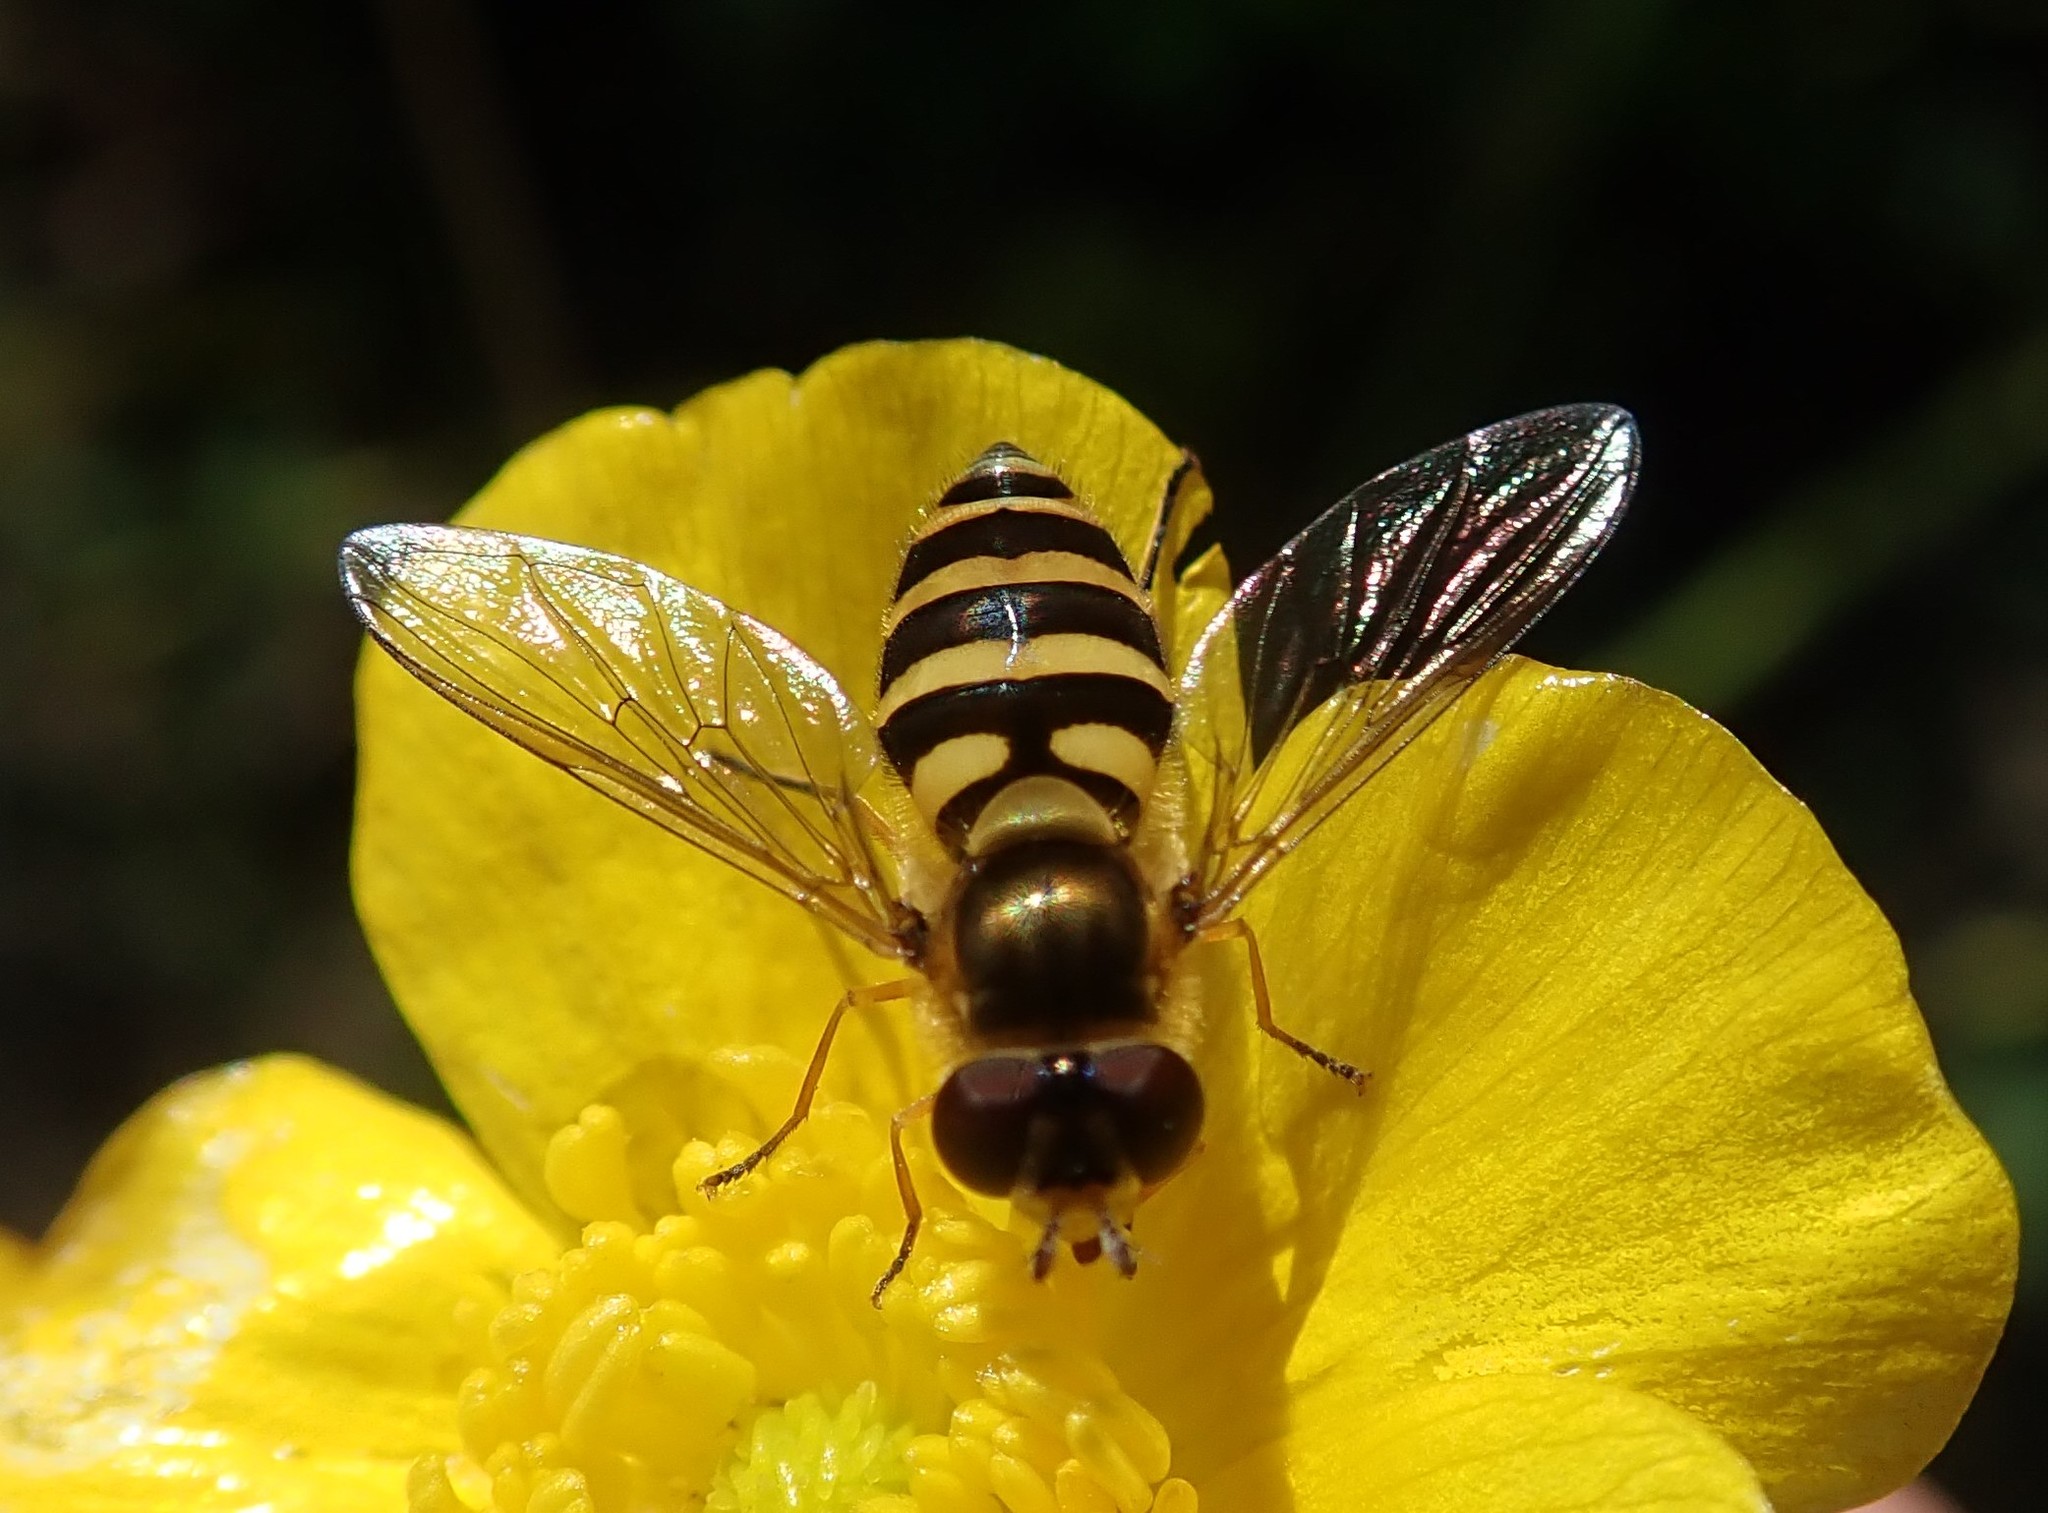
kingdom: Animalia
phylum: Arthropoda
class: Insecta
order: Diptera
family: Syrphidae
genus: Syrphus
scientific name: Syrphus
